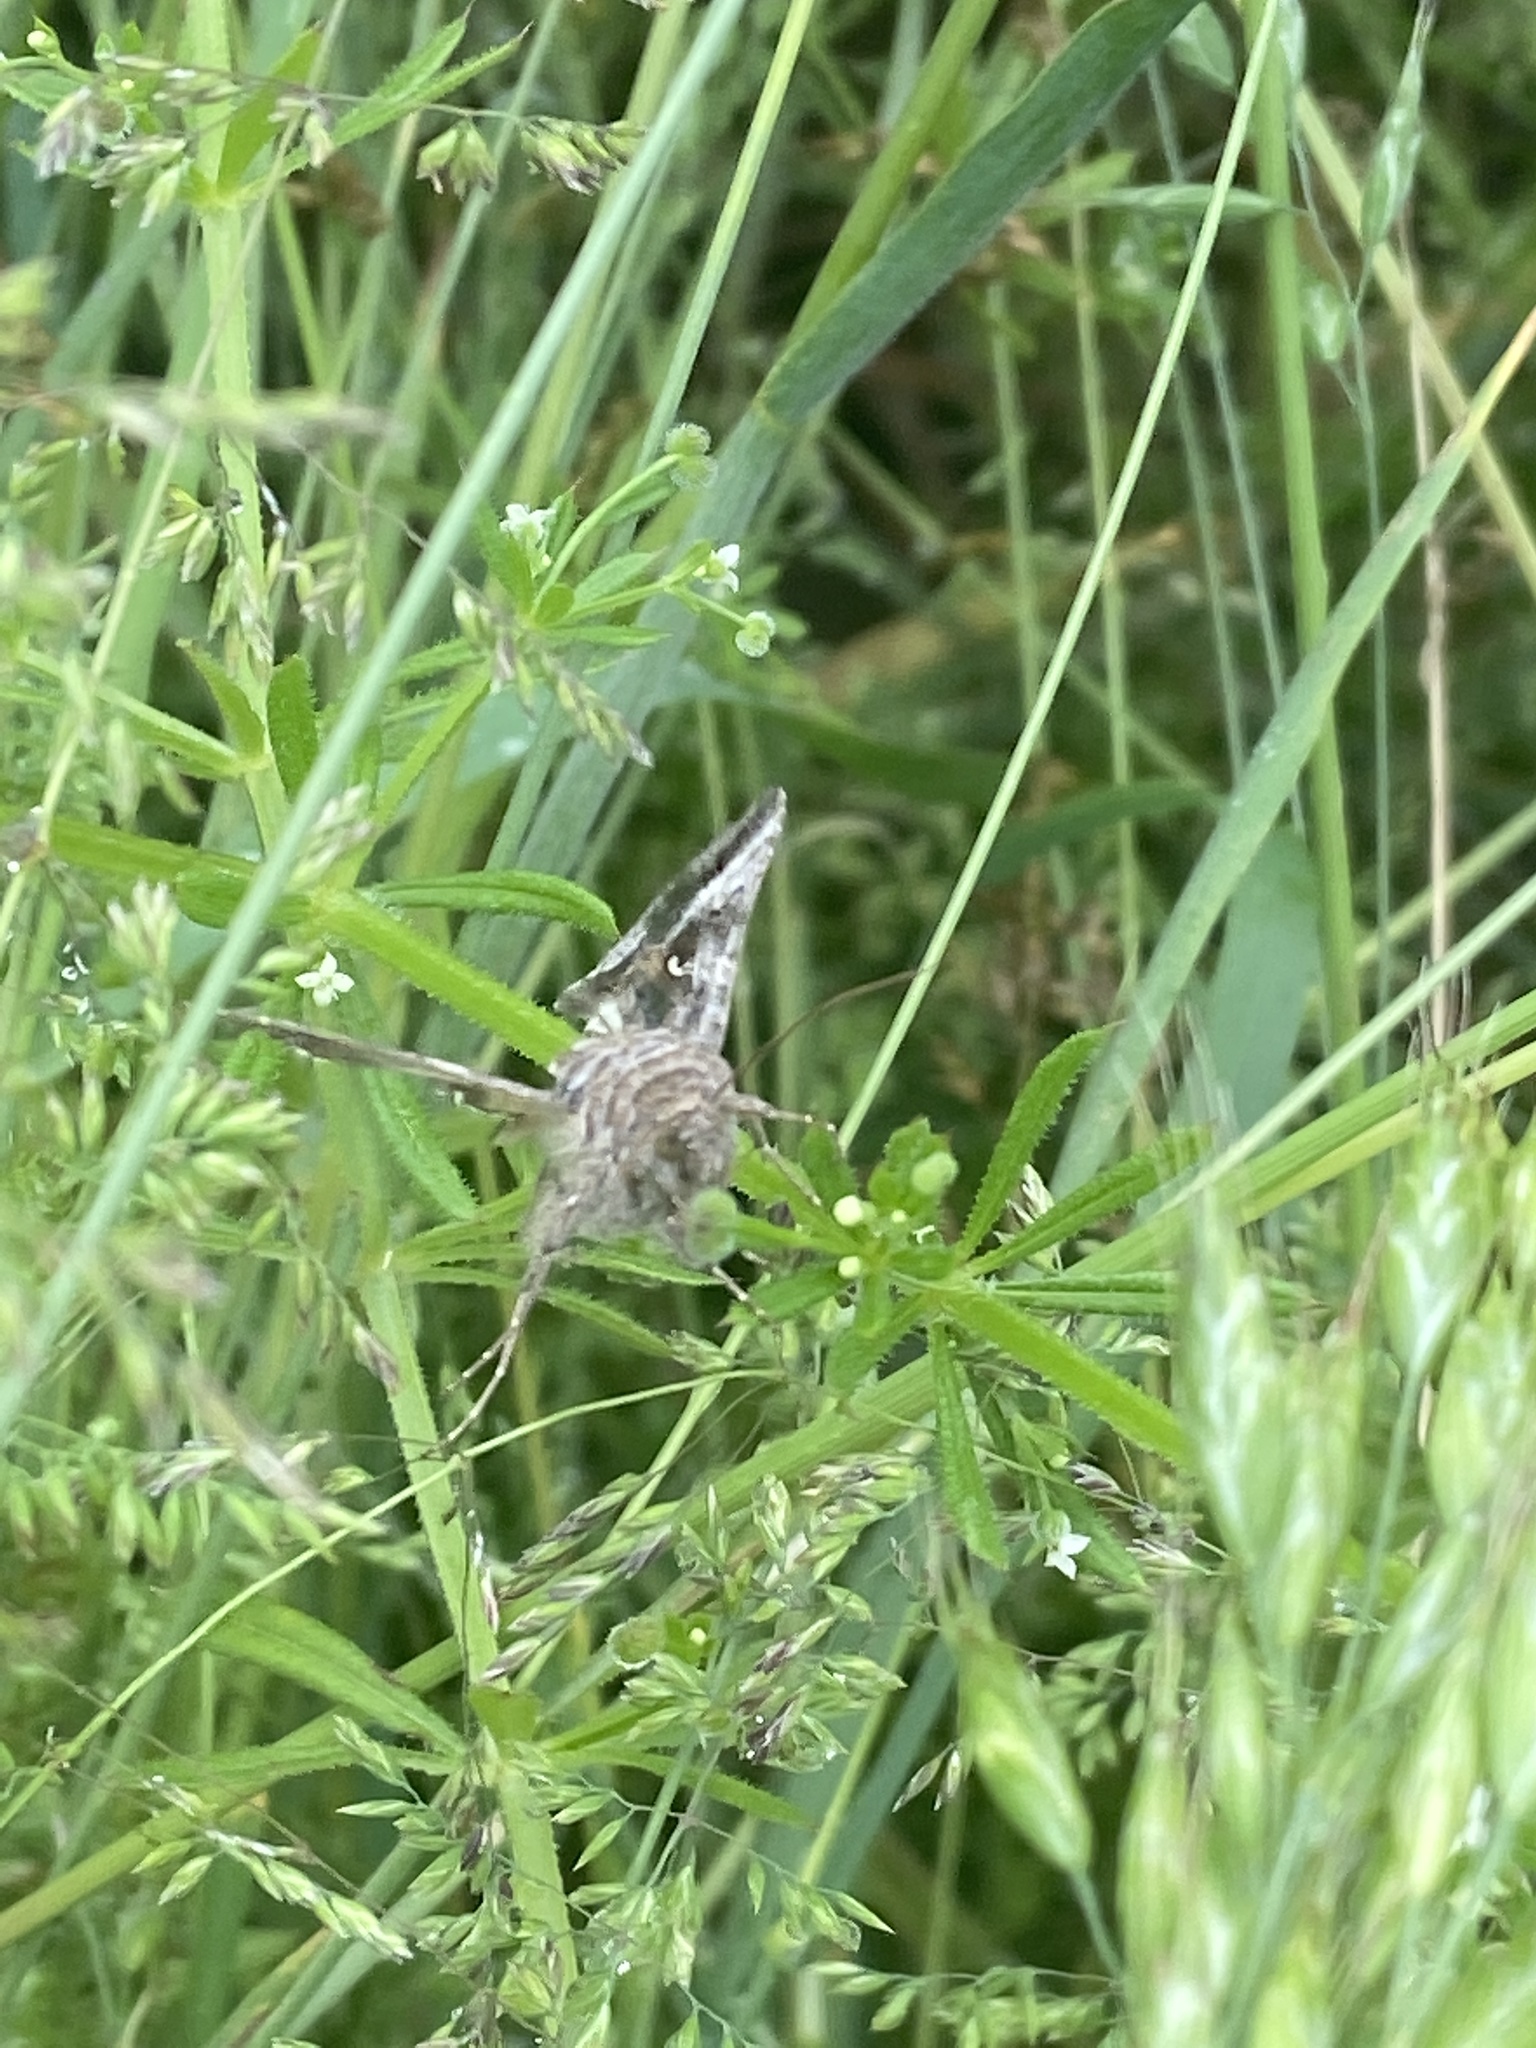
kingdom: Animalia
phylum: Arthropoda
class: Insecta
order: Lepidoptera
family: Noctuidae
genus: Autographa
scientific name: Autographa gamma
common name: Silver y
